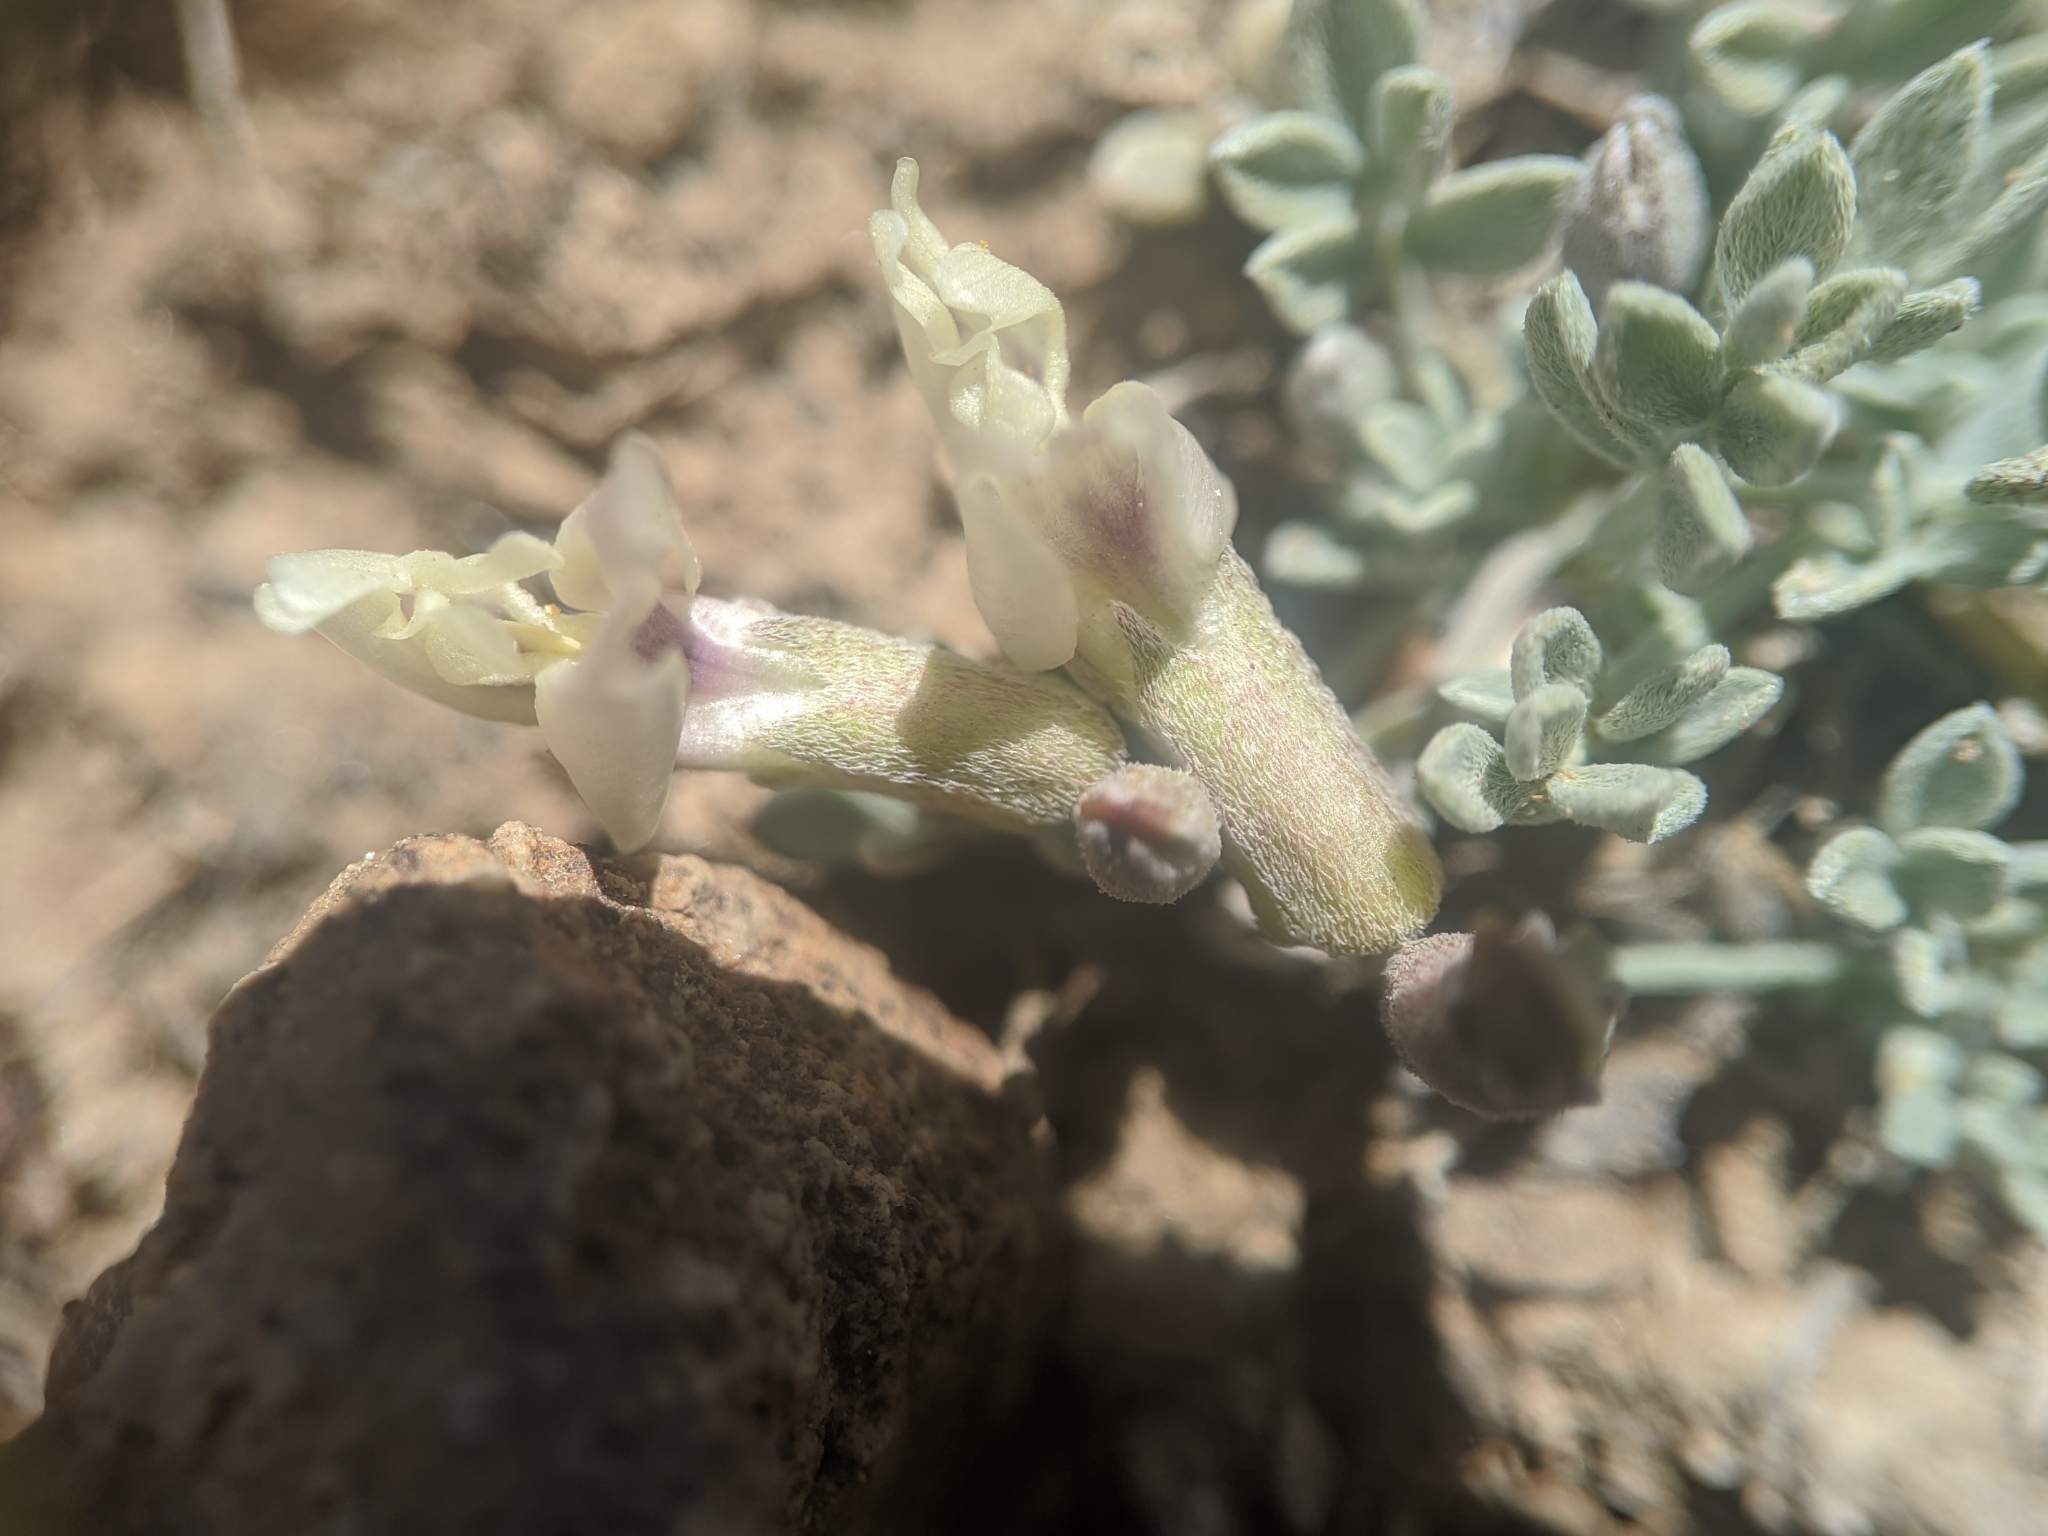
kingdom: Plantae
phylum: Tracheophyta
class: Magnoliopsida
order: Fabales
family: Fabaceae
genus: Astragalus
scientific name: Astragalus calycosus
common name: King's milkvetch
